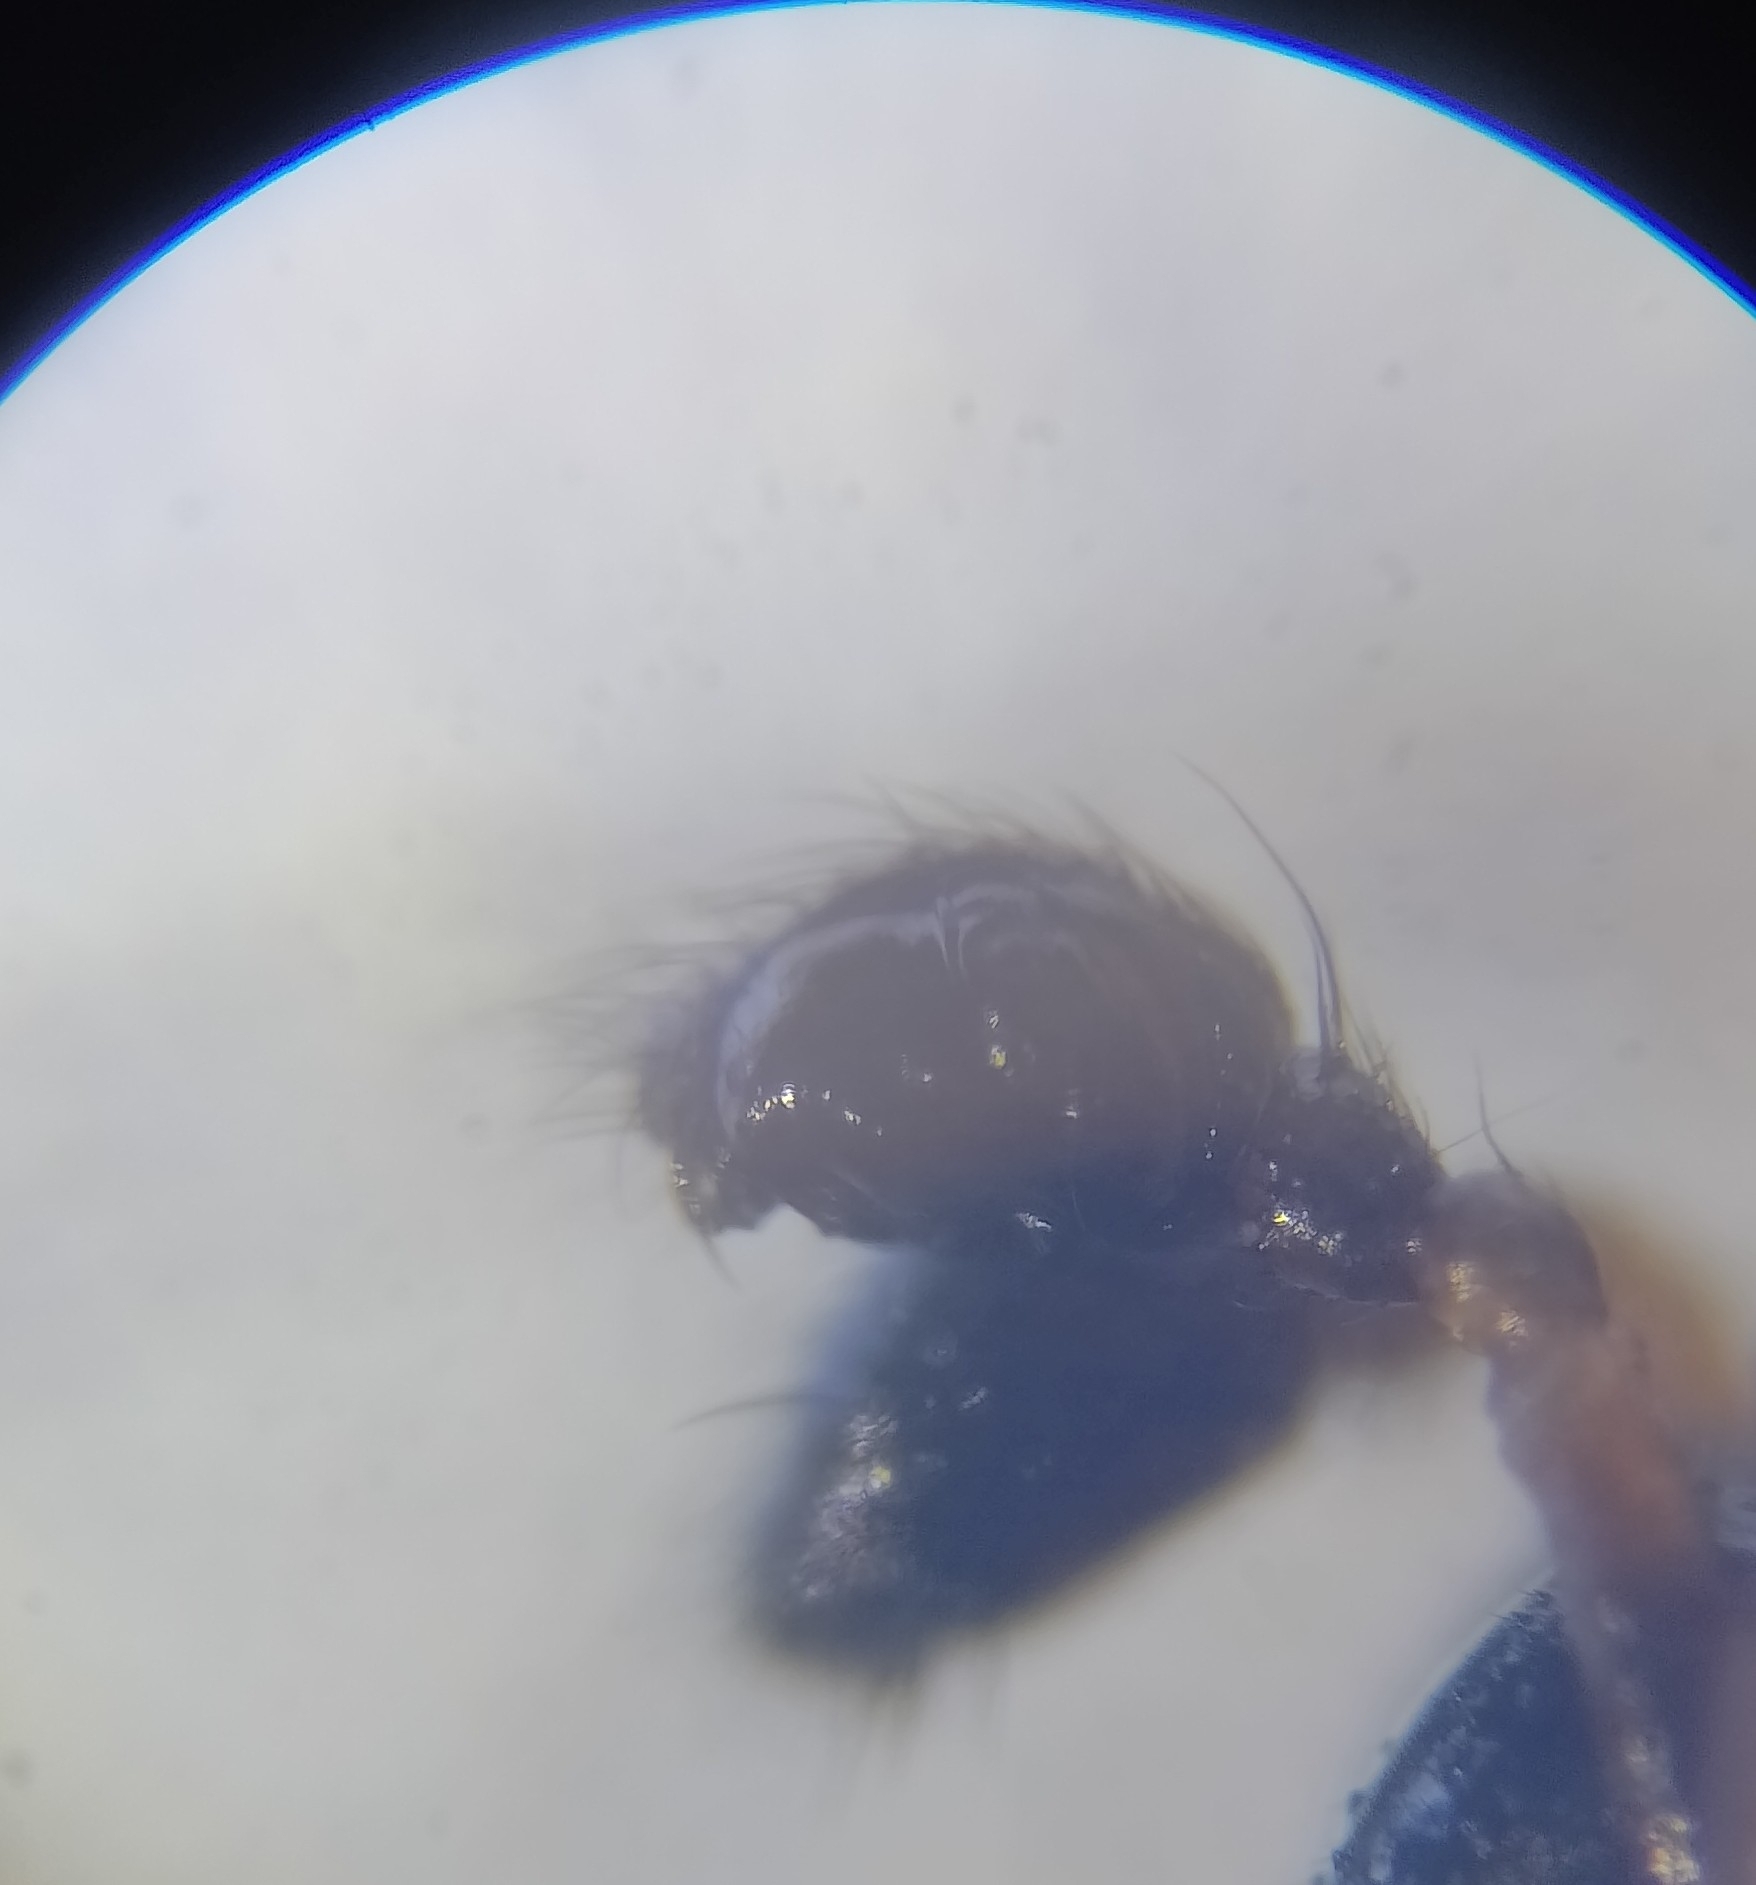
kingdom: Animalia
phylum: Arthropoda
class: Arachnida
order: Araneae
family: Linyphiidae
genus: Linyphia
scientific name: Linyphia hortensis
